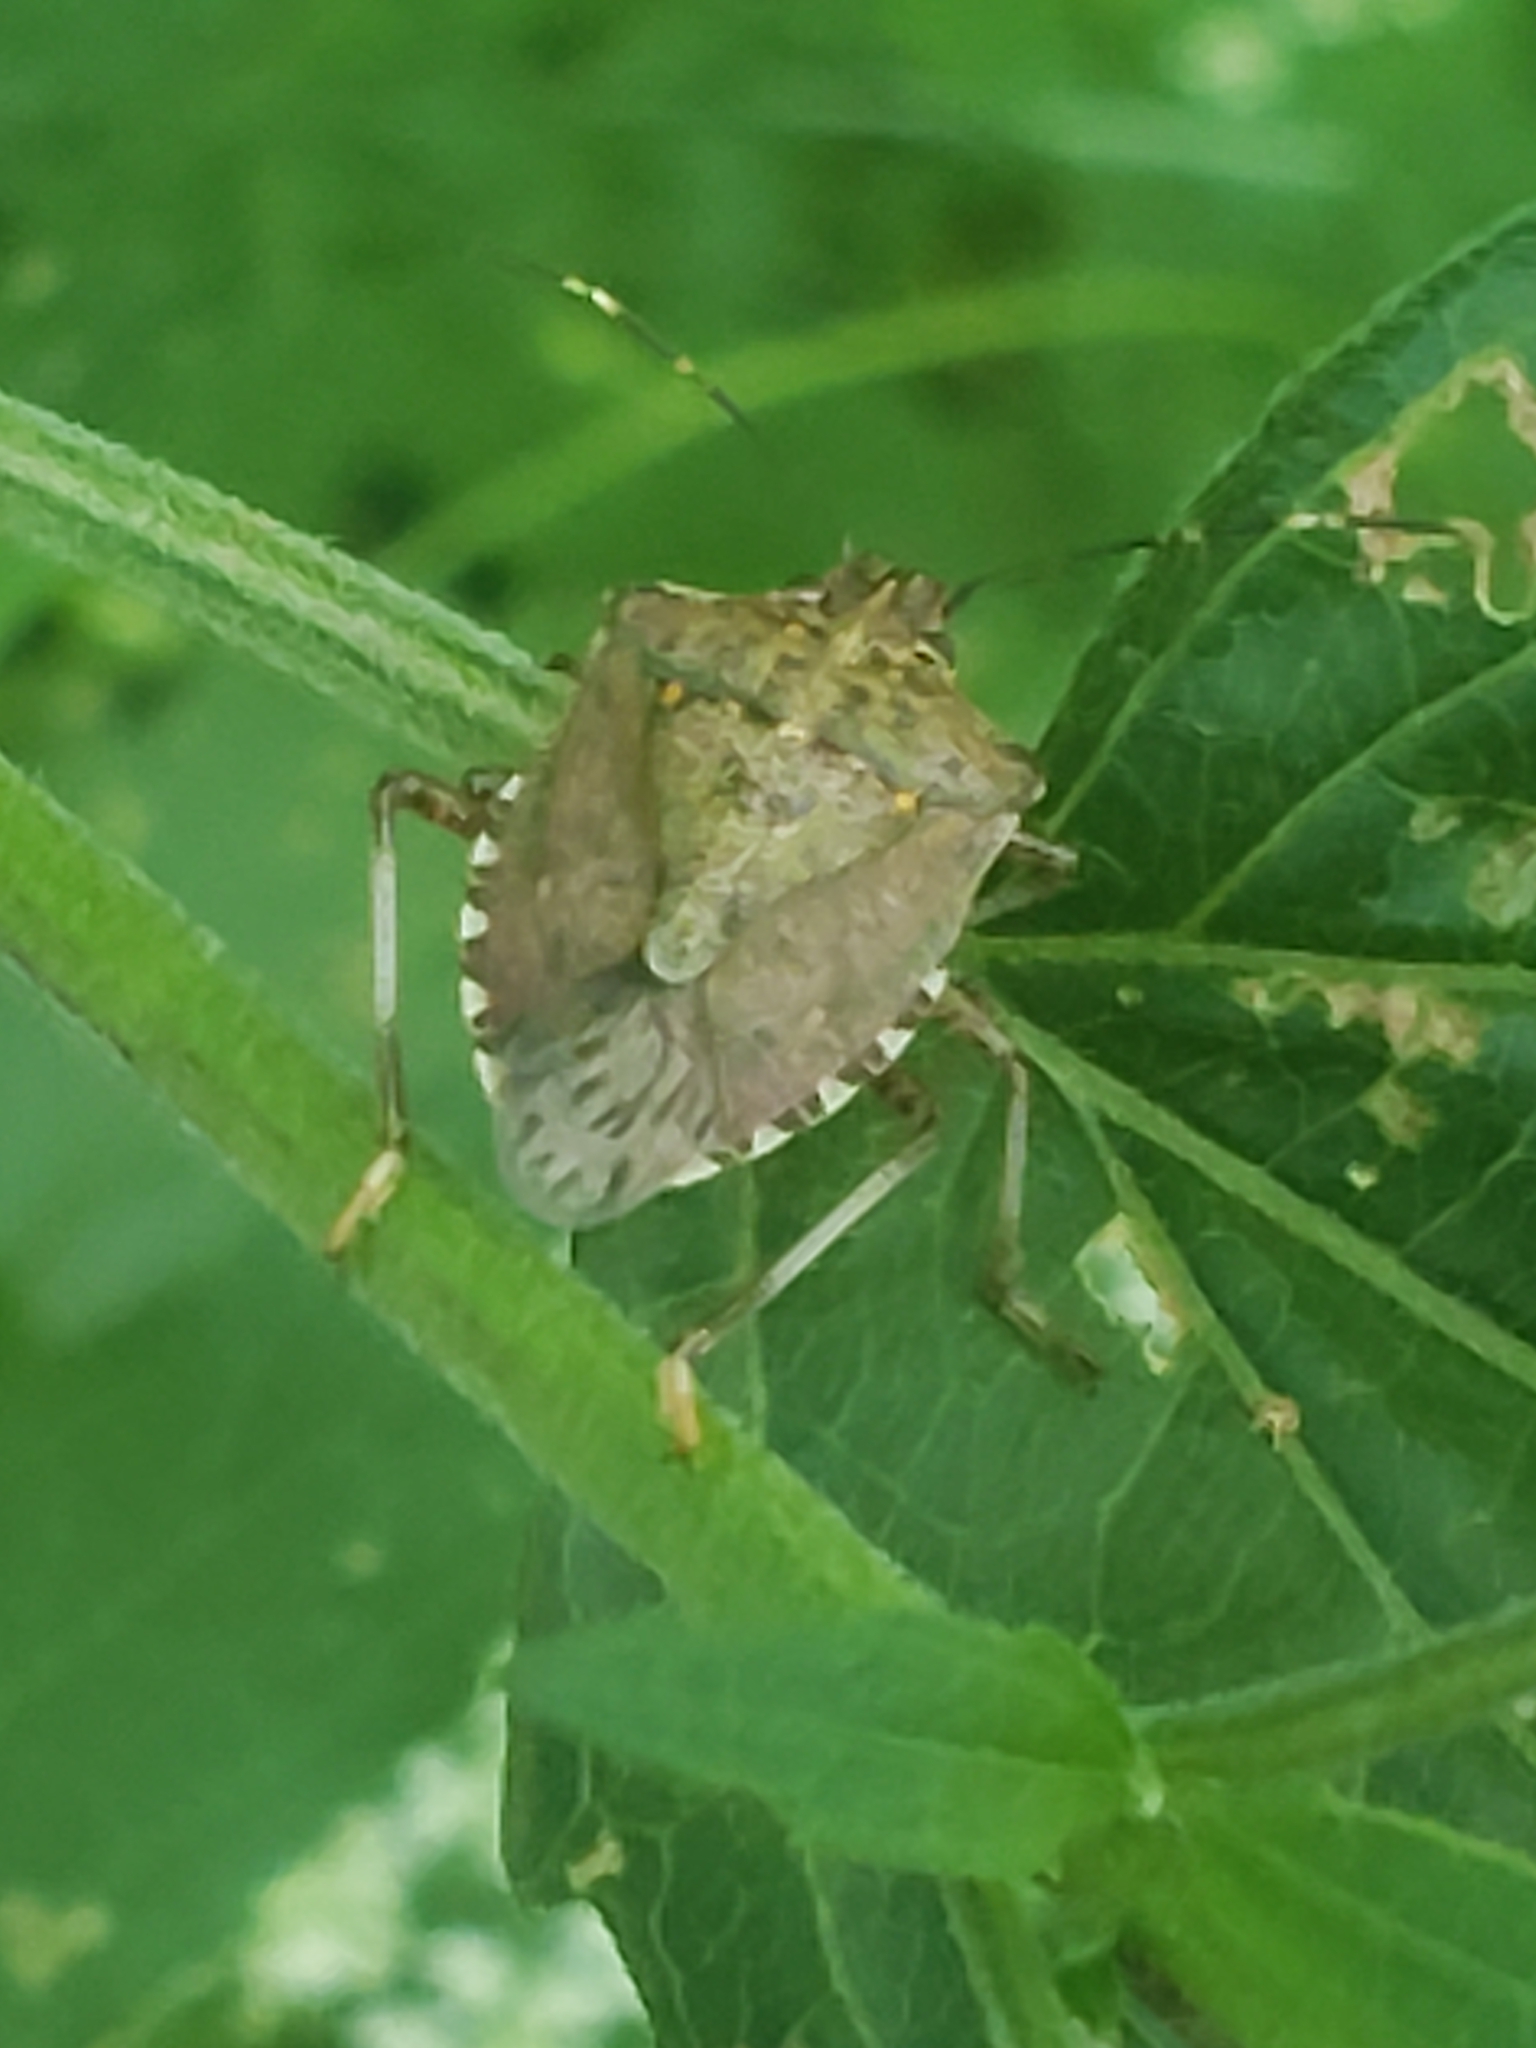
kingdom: Animalia
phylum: Arthropoda
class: Insecta
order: Hemiptera
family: Pentatomidae
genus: Halyomorpha
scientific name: Halyomorpha halys
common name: Brown marmorated stink bug
